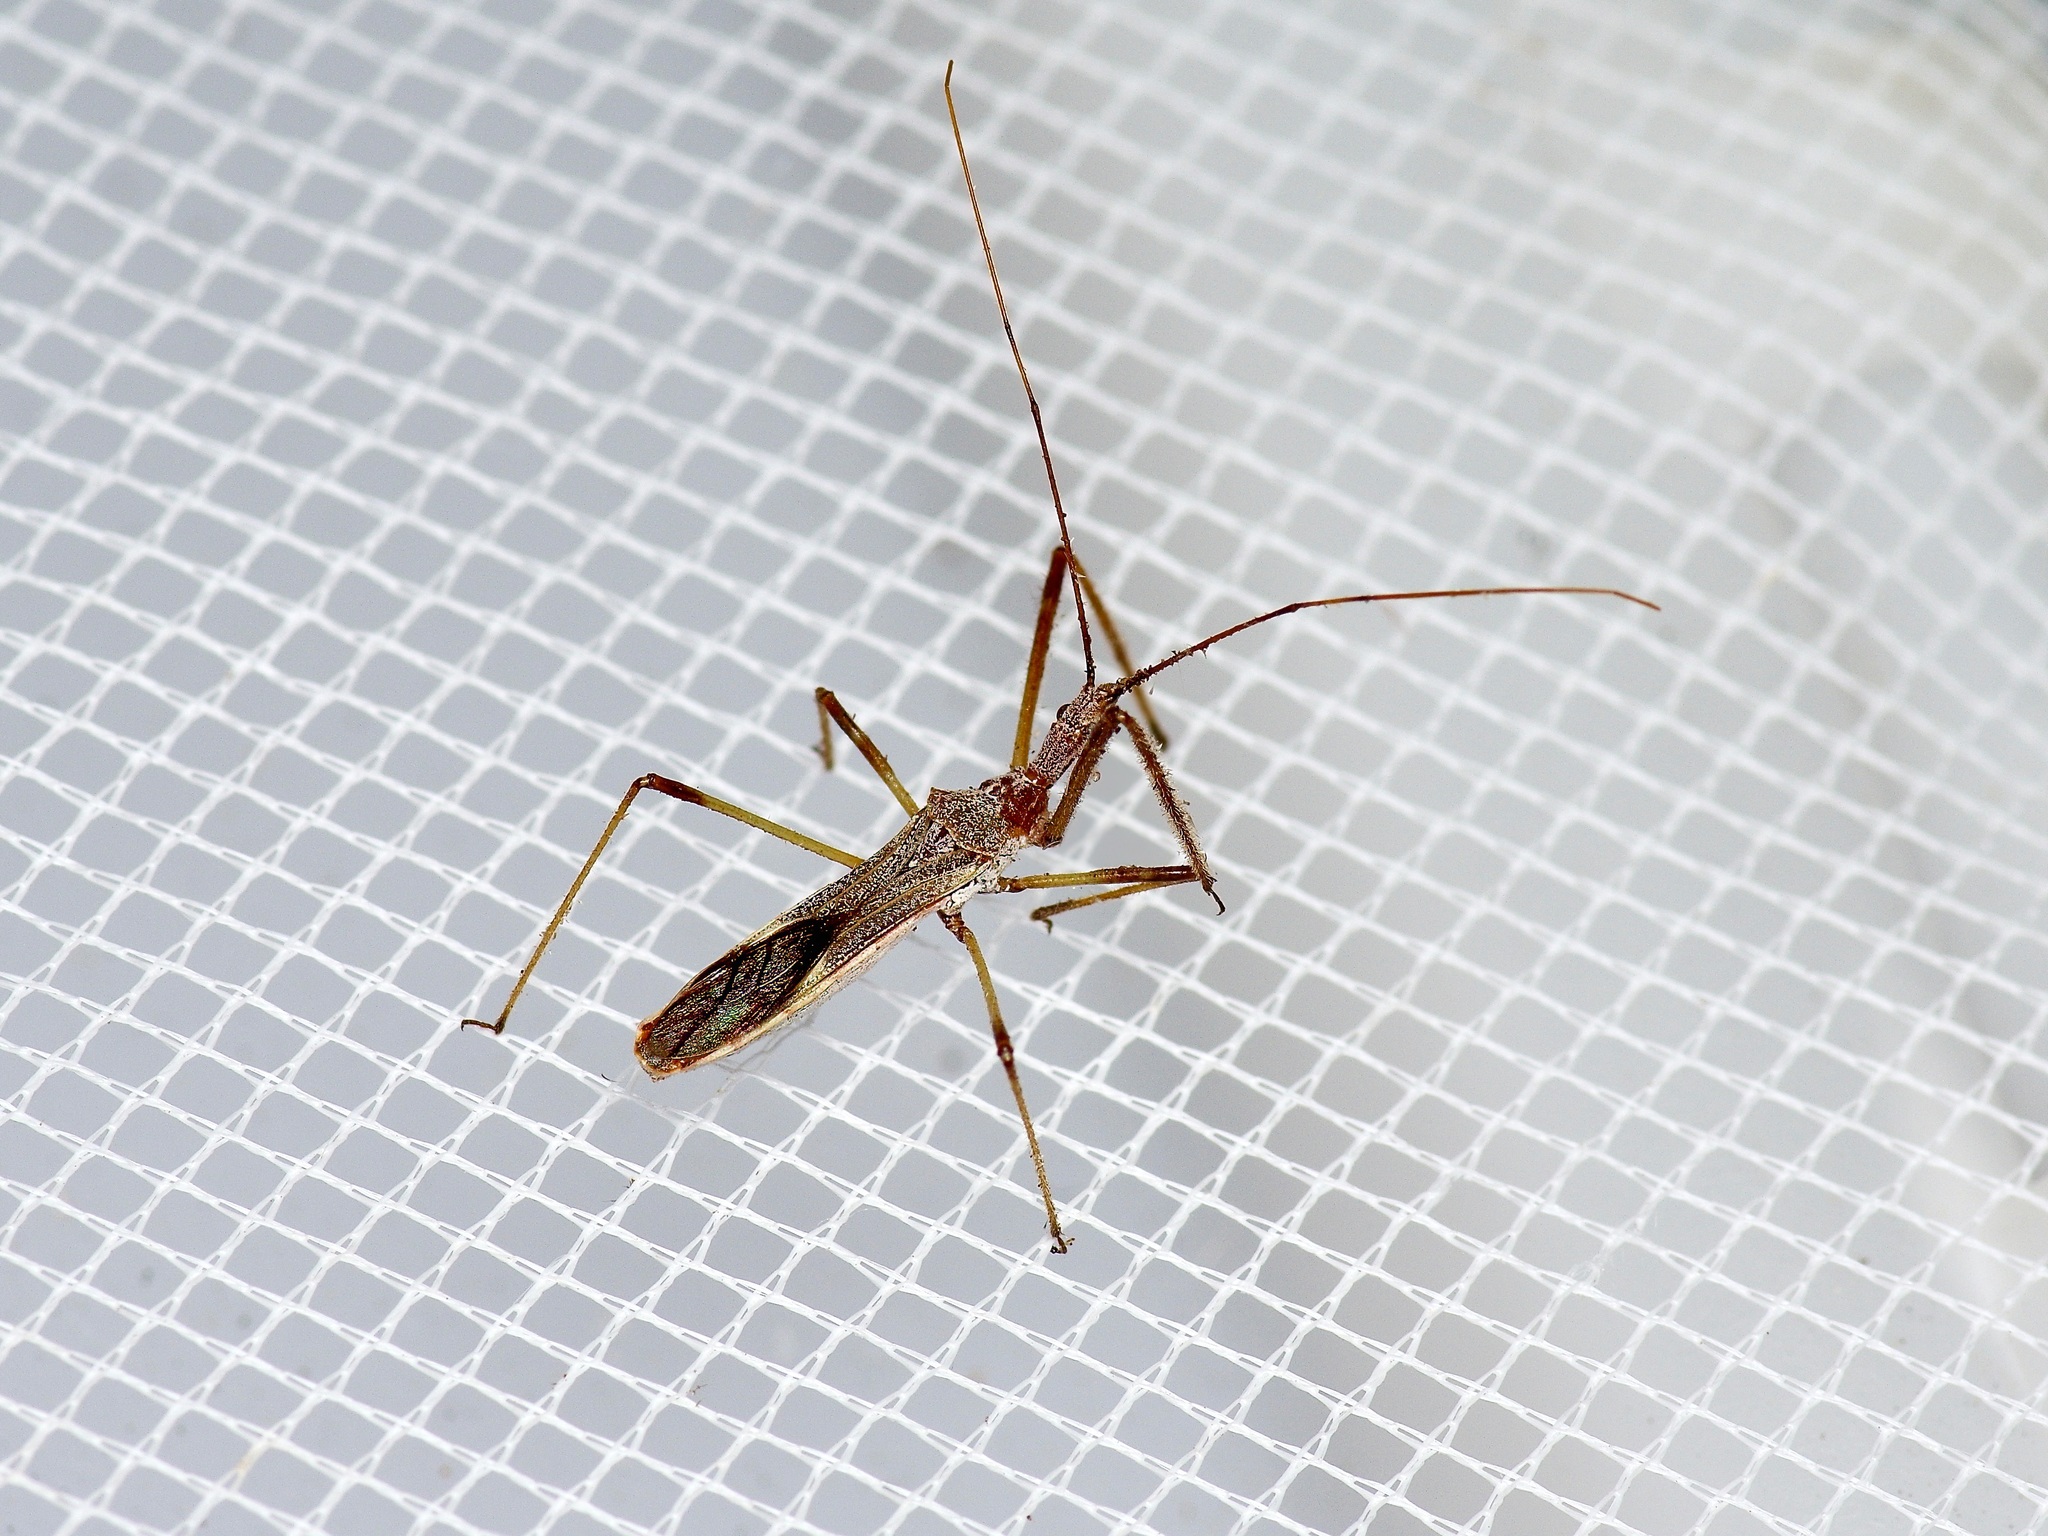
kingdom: Animalia
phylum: Arthropoda
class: Insecta
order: Hemiptera
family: Reduviidae
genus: Zelus
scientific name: Zelus tetracanthus
